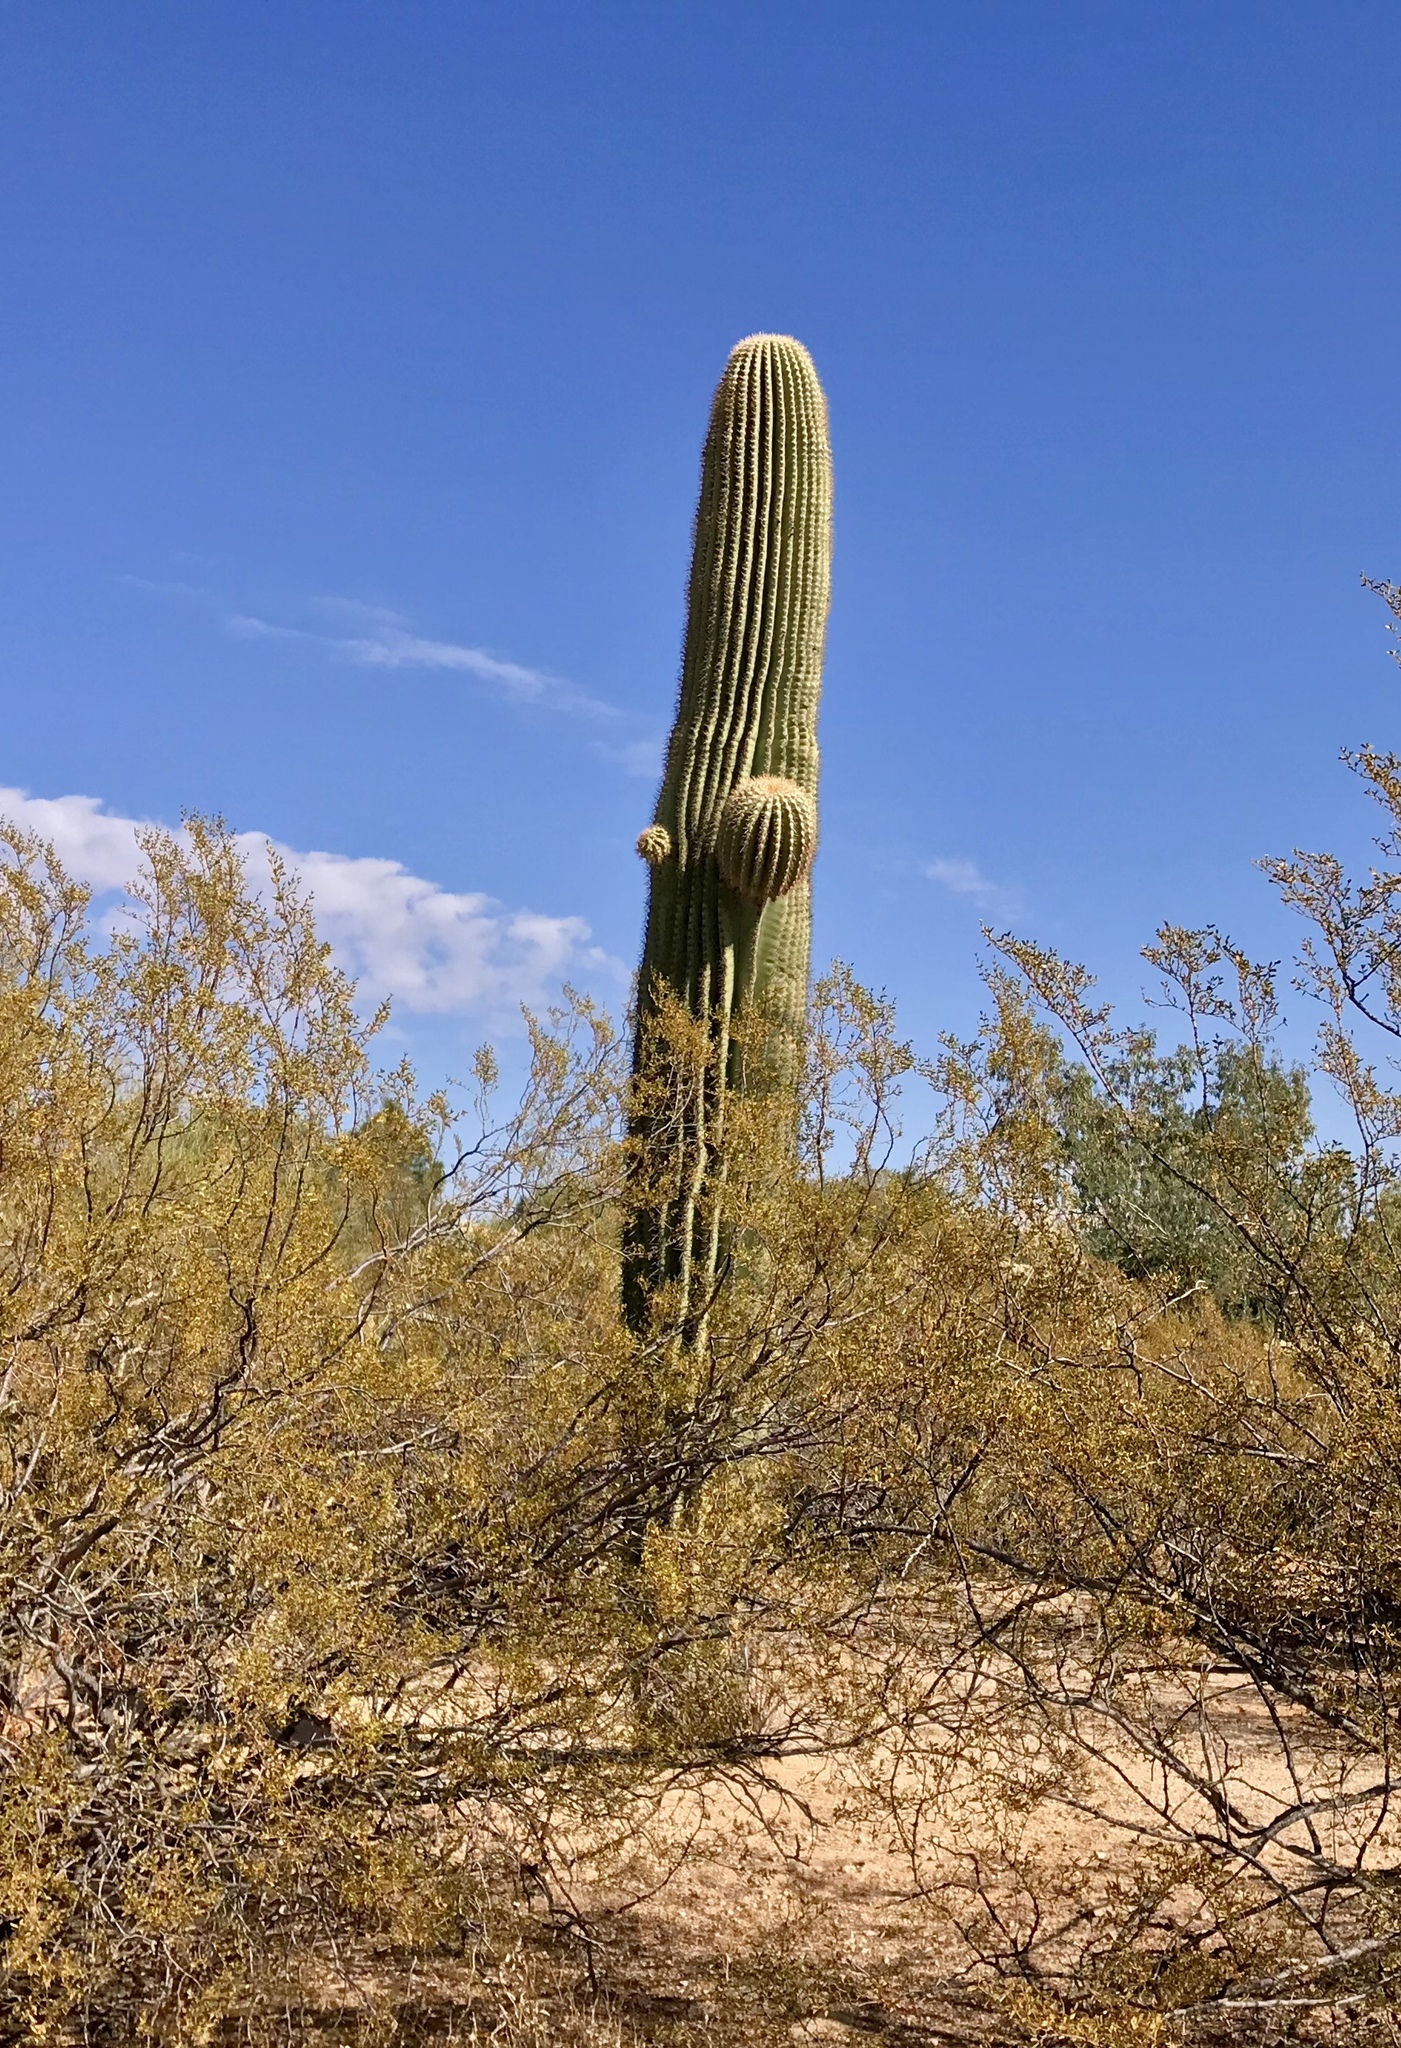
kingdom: Plantae
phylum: Tracheophyta
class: Magnoliopsida
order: Caryophyllales
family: Cactaceae
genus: Carnegiea
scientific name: Carnegiea gigantea
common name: Saguaro
